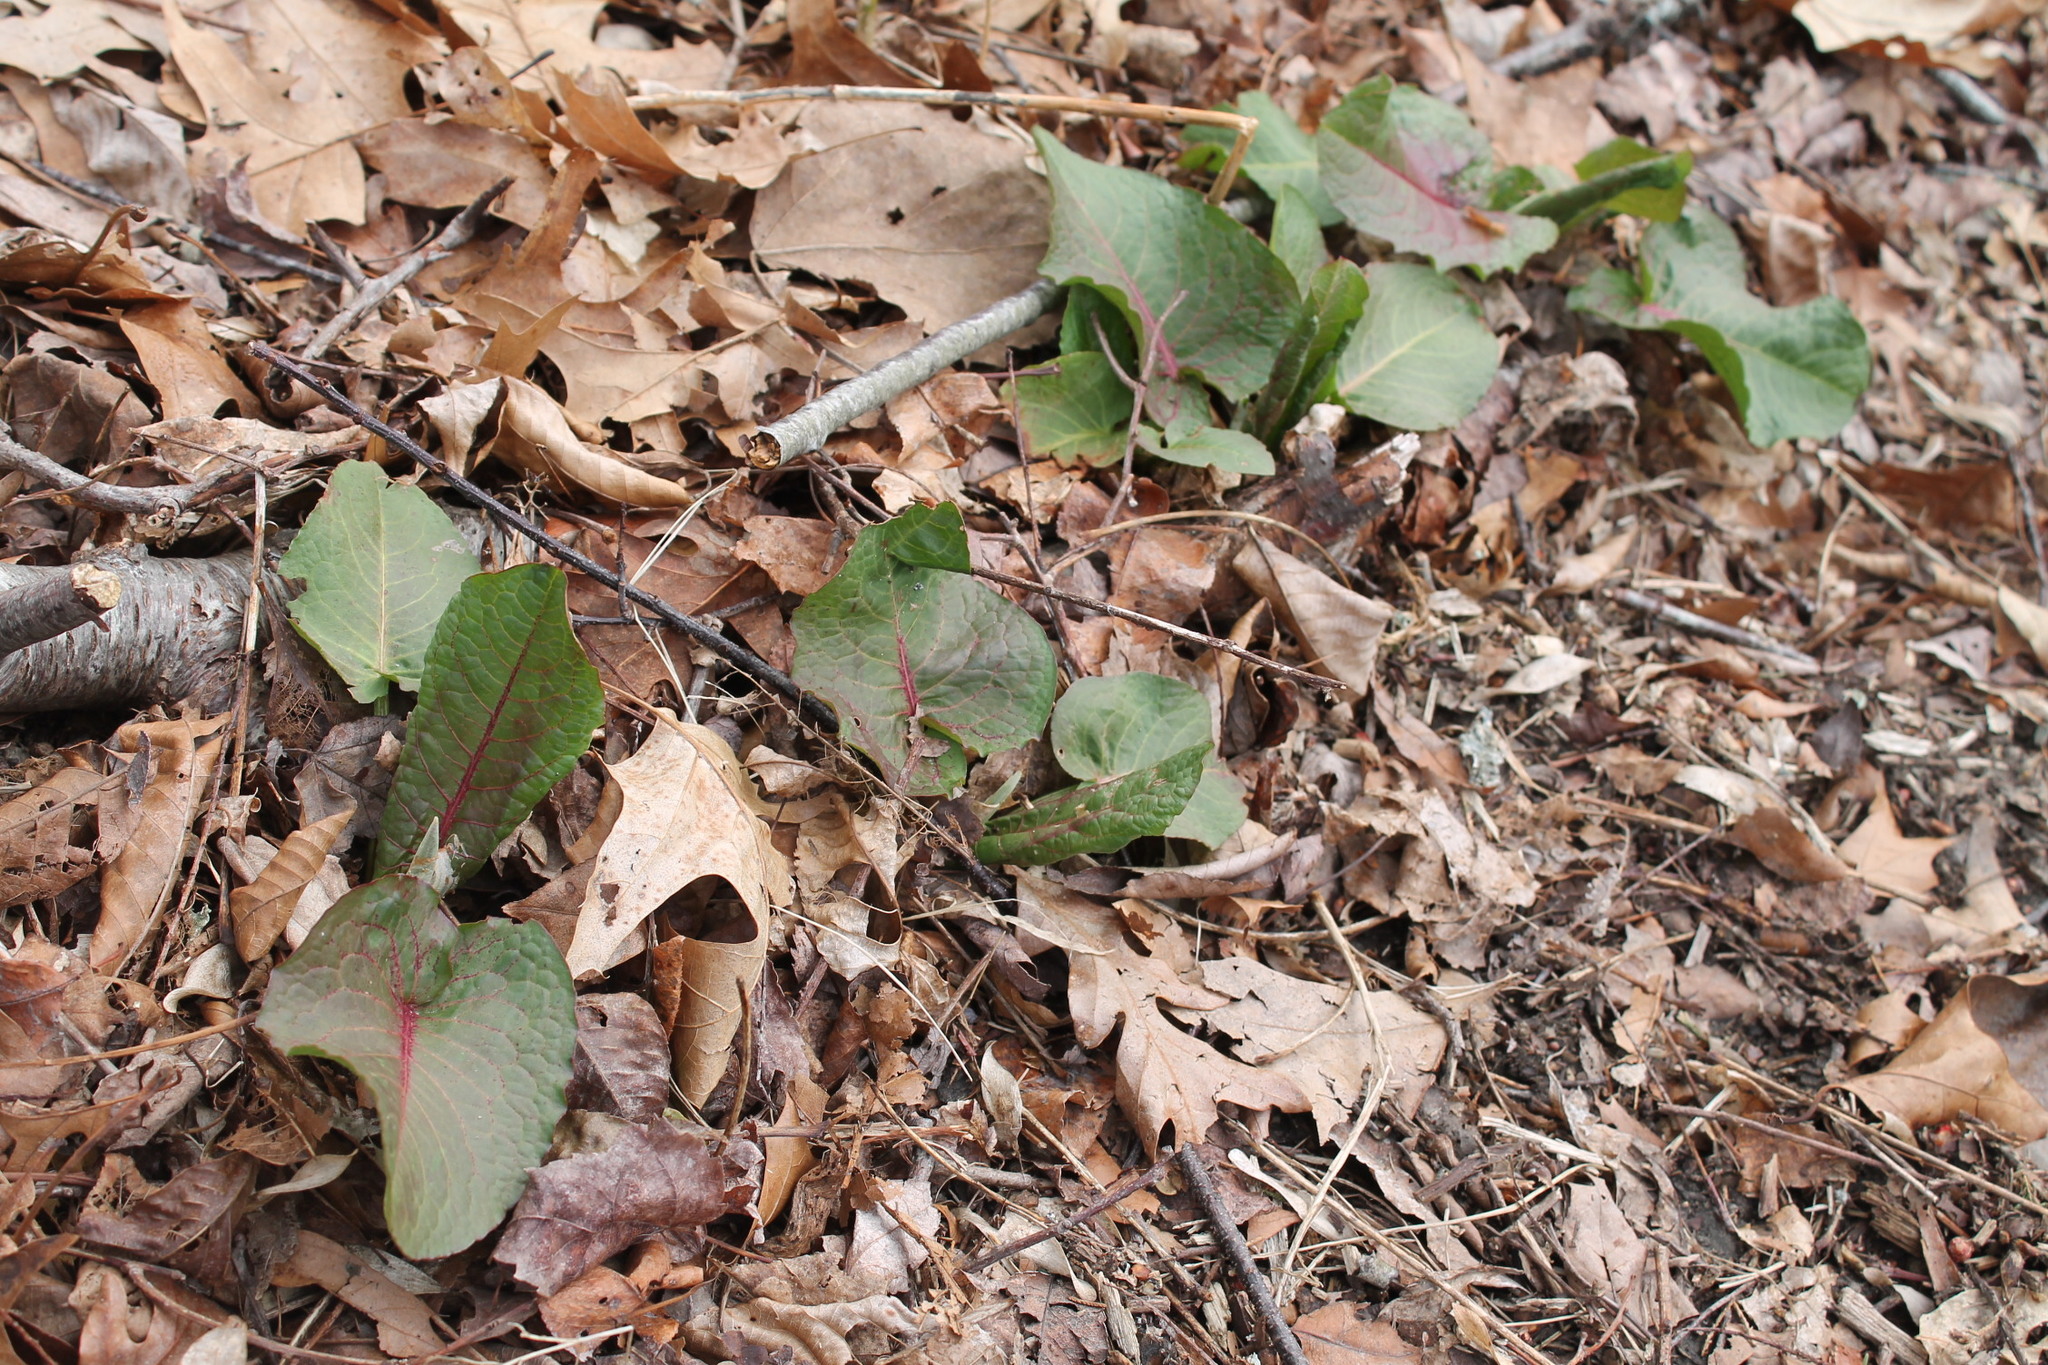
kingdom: Plantae
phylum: Tracheophyta
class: Magnoliopsida
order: Caryophyllales
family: Polygonaceae
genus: Rumex
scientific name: Rumex obtusifolius
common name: Bitter dock
